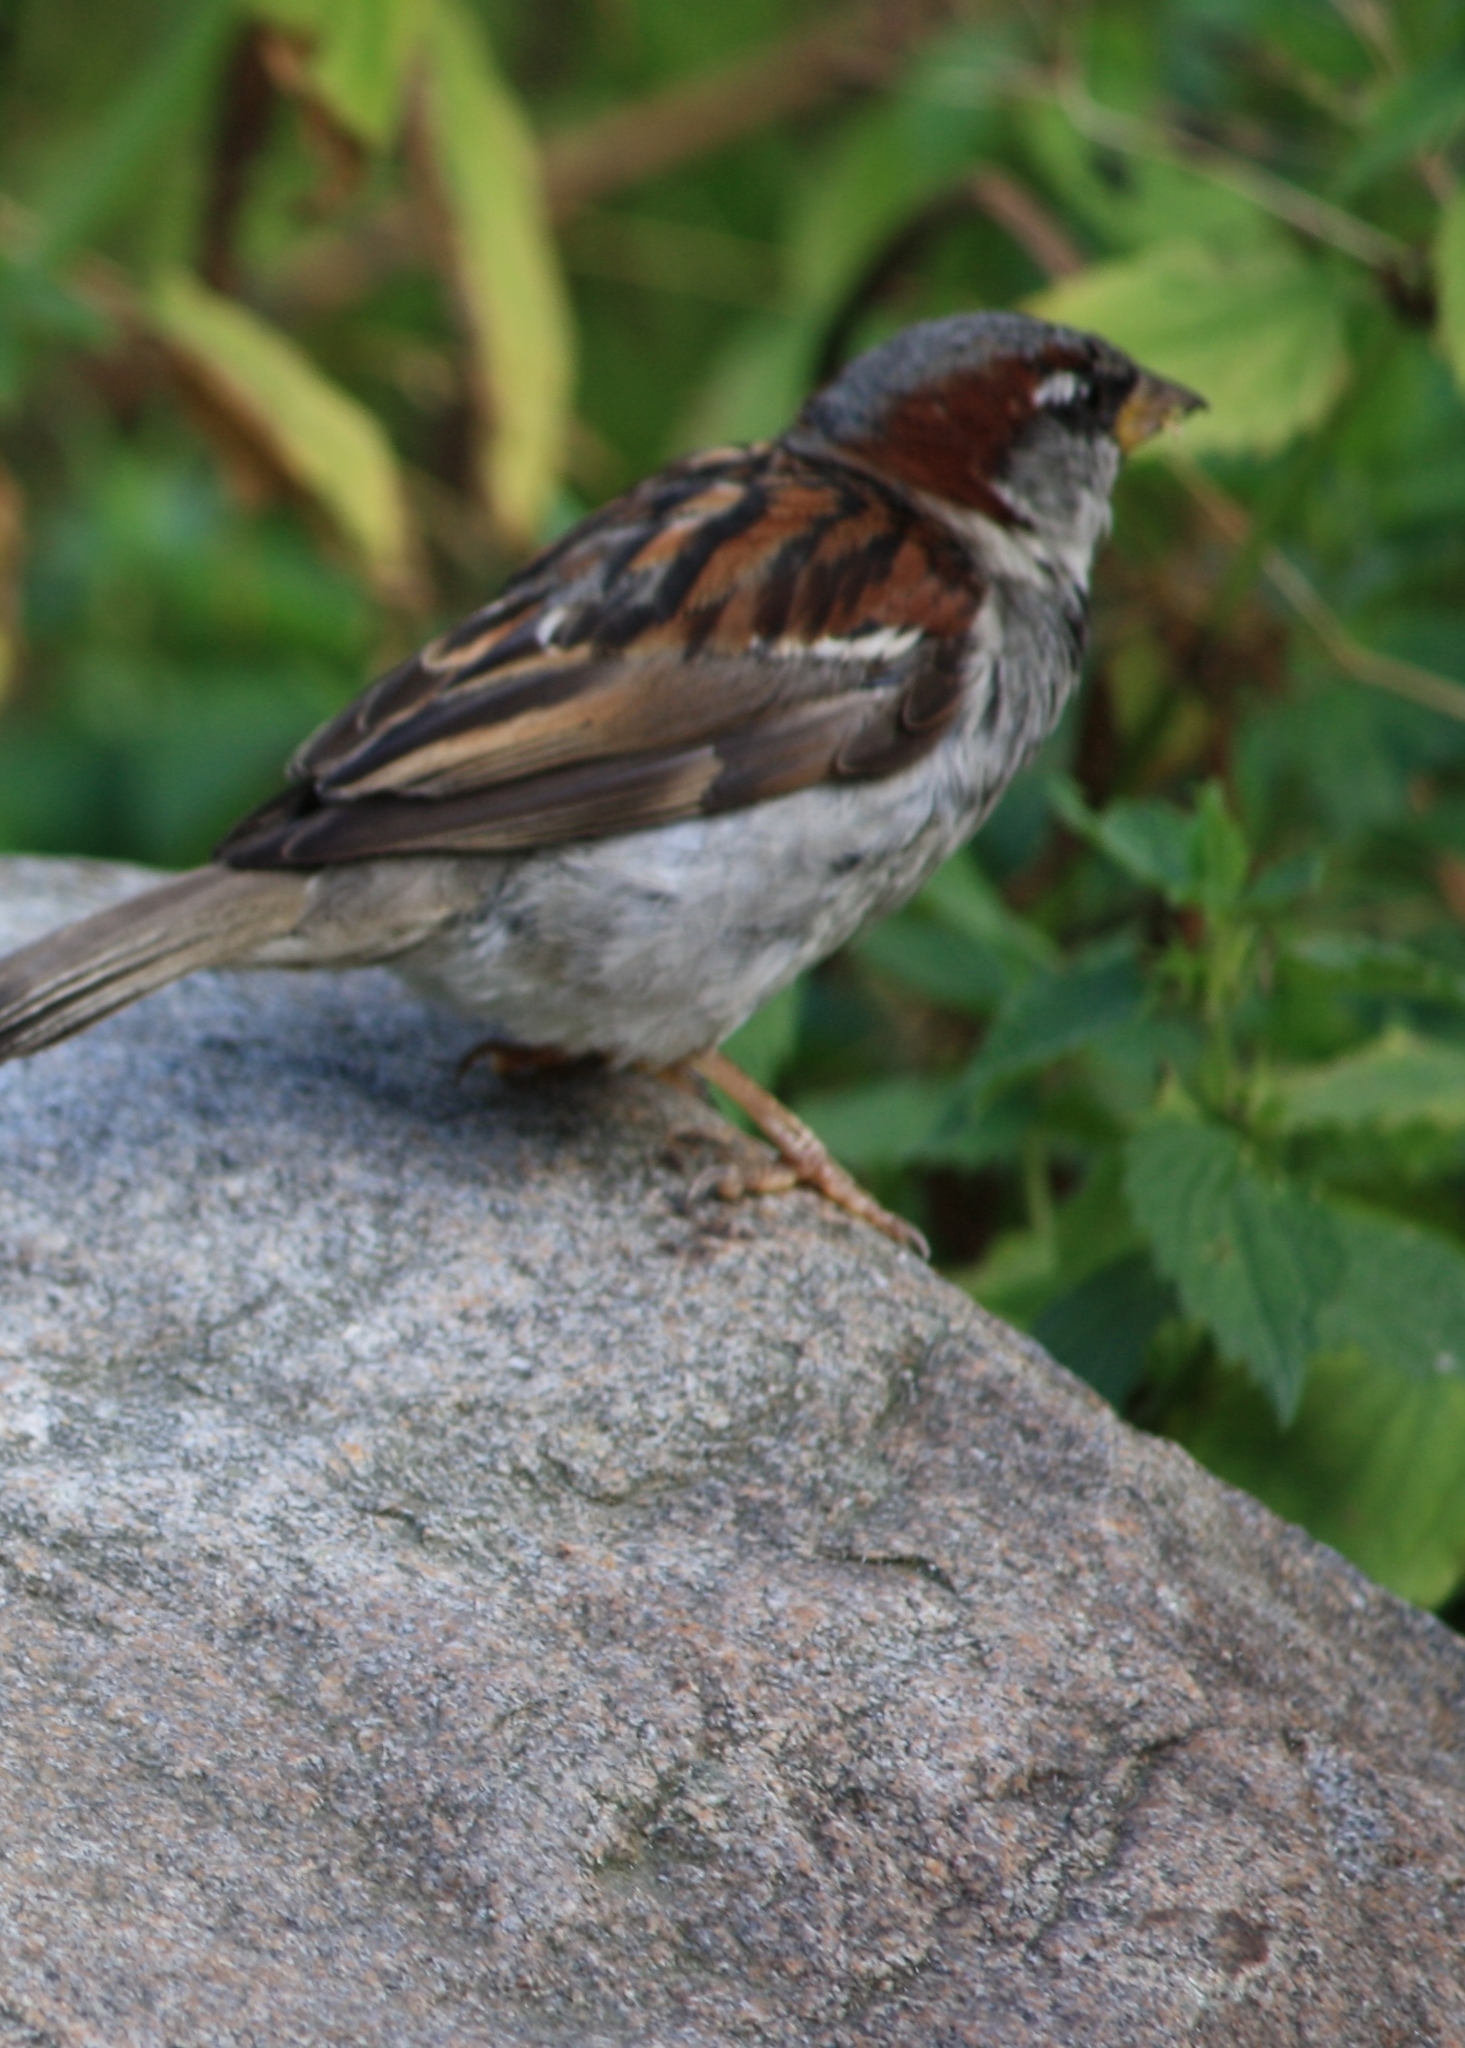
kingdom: Animalia
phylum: Chordata
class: Aves
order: Passeriformes
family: Passeridae
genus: Passer
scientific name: Passer domesticus
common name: House sparrow
